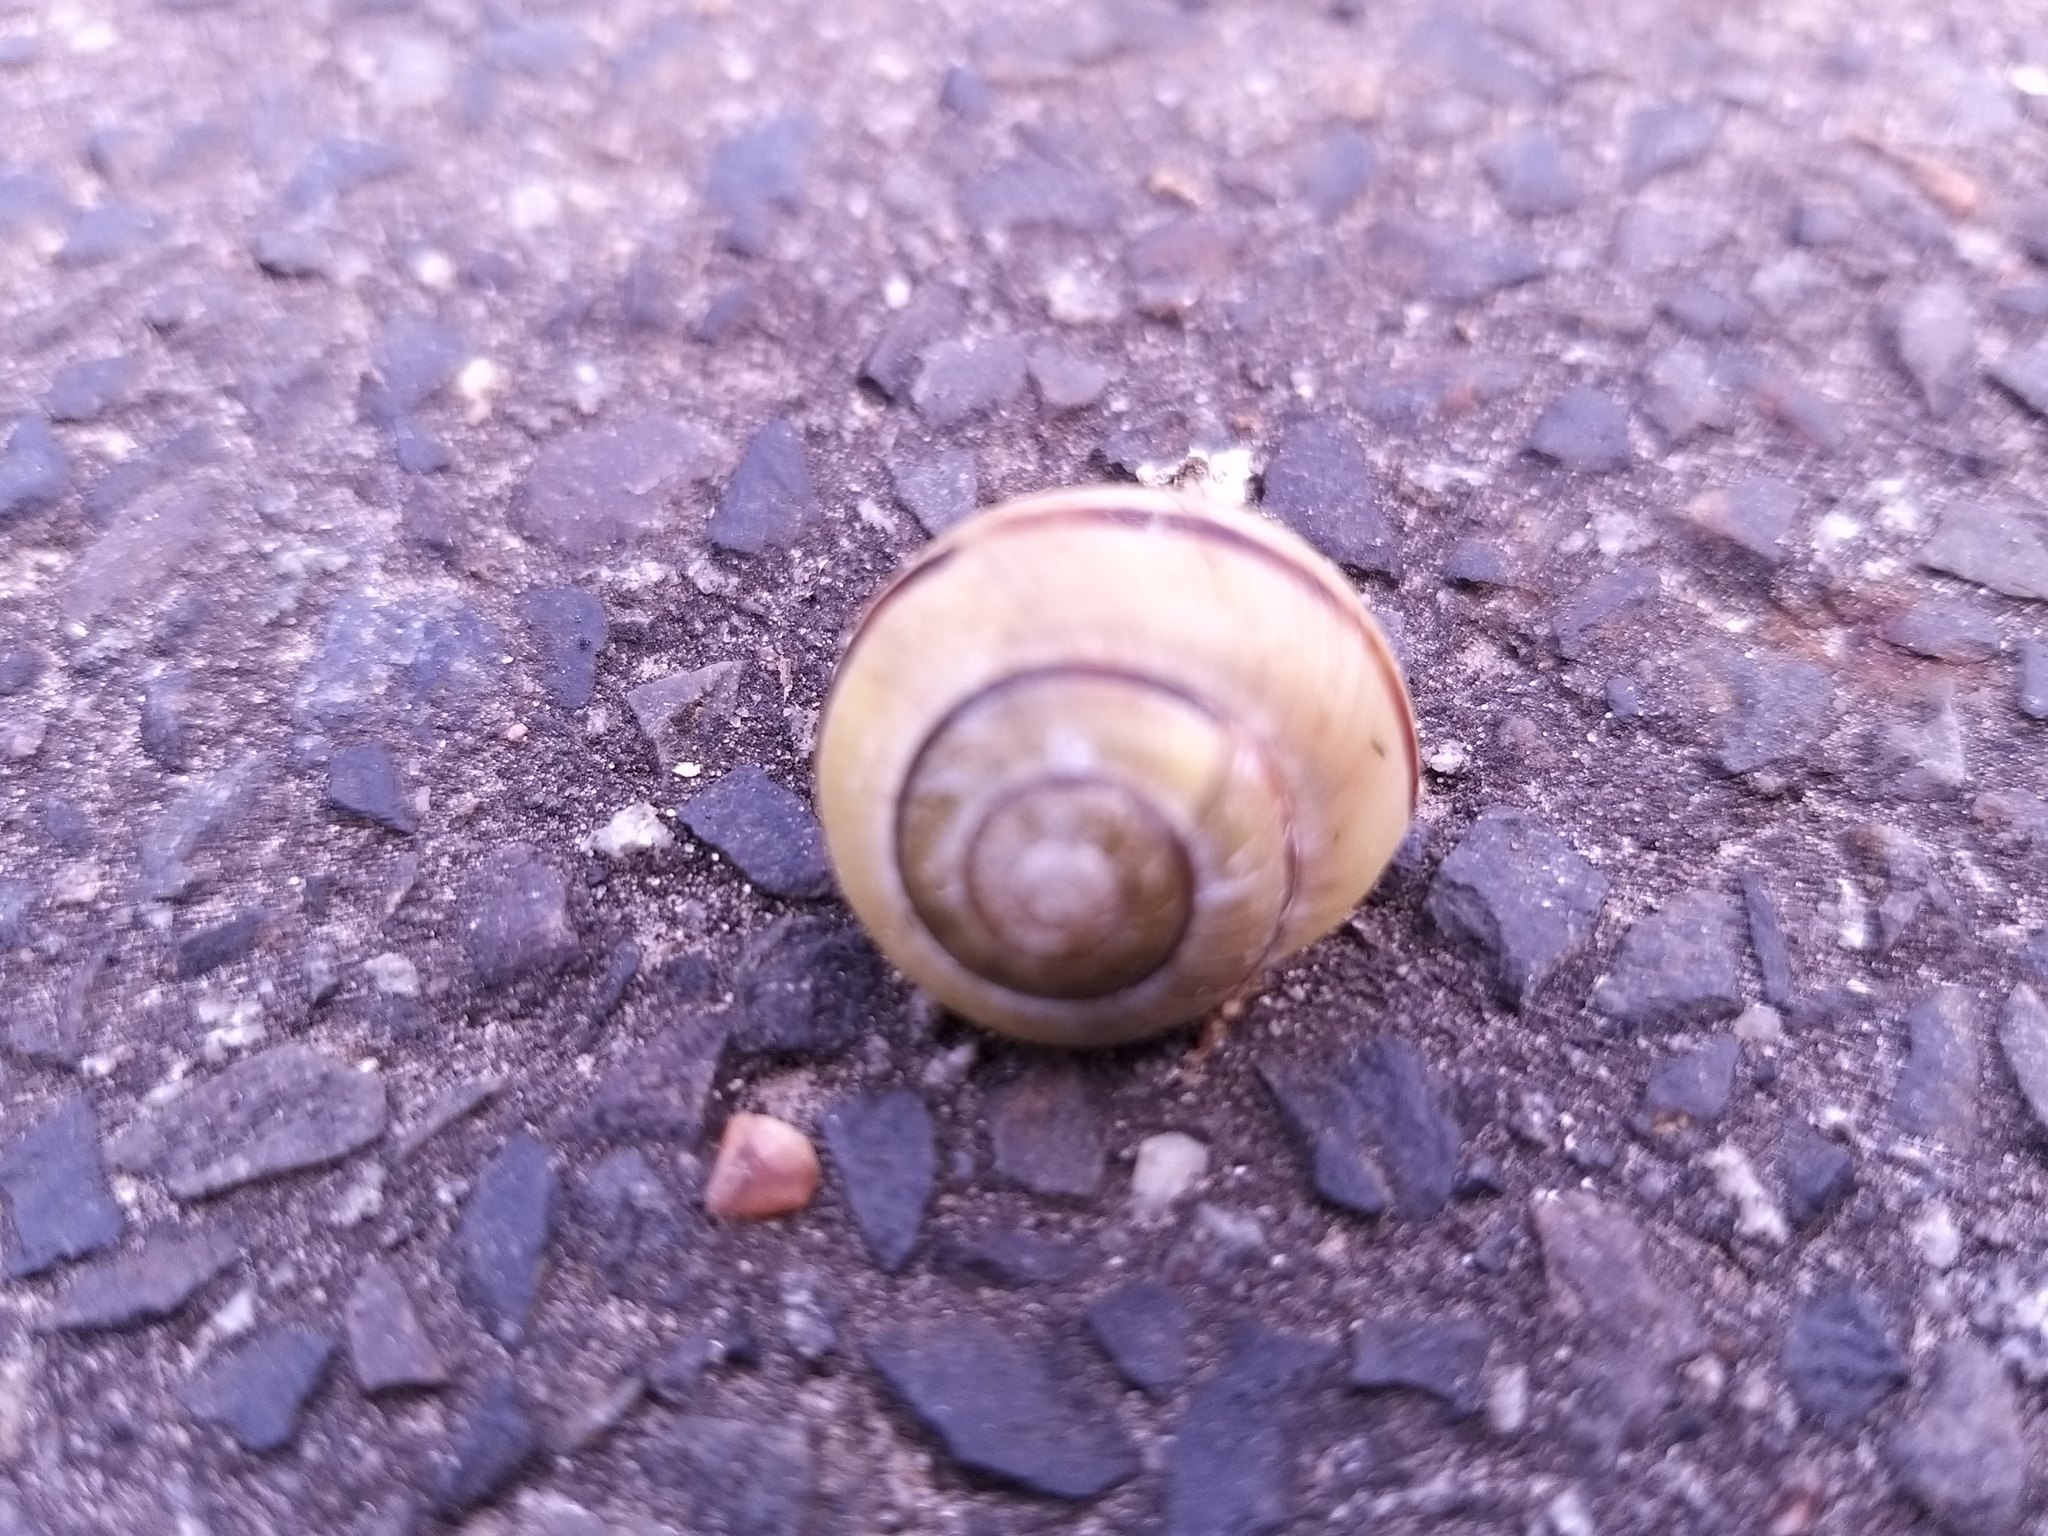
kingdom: Animalia
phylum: Mollusca
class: Gastropoda
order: Stylommatophora
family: Helicidae
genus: Cepaea
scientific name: Cepaea nemoralis
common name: Grovesnail
